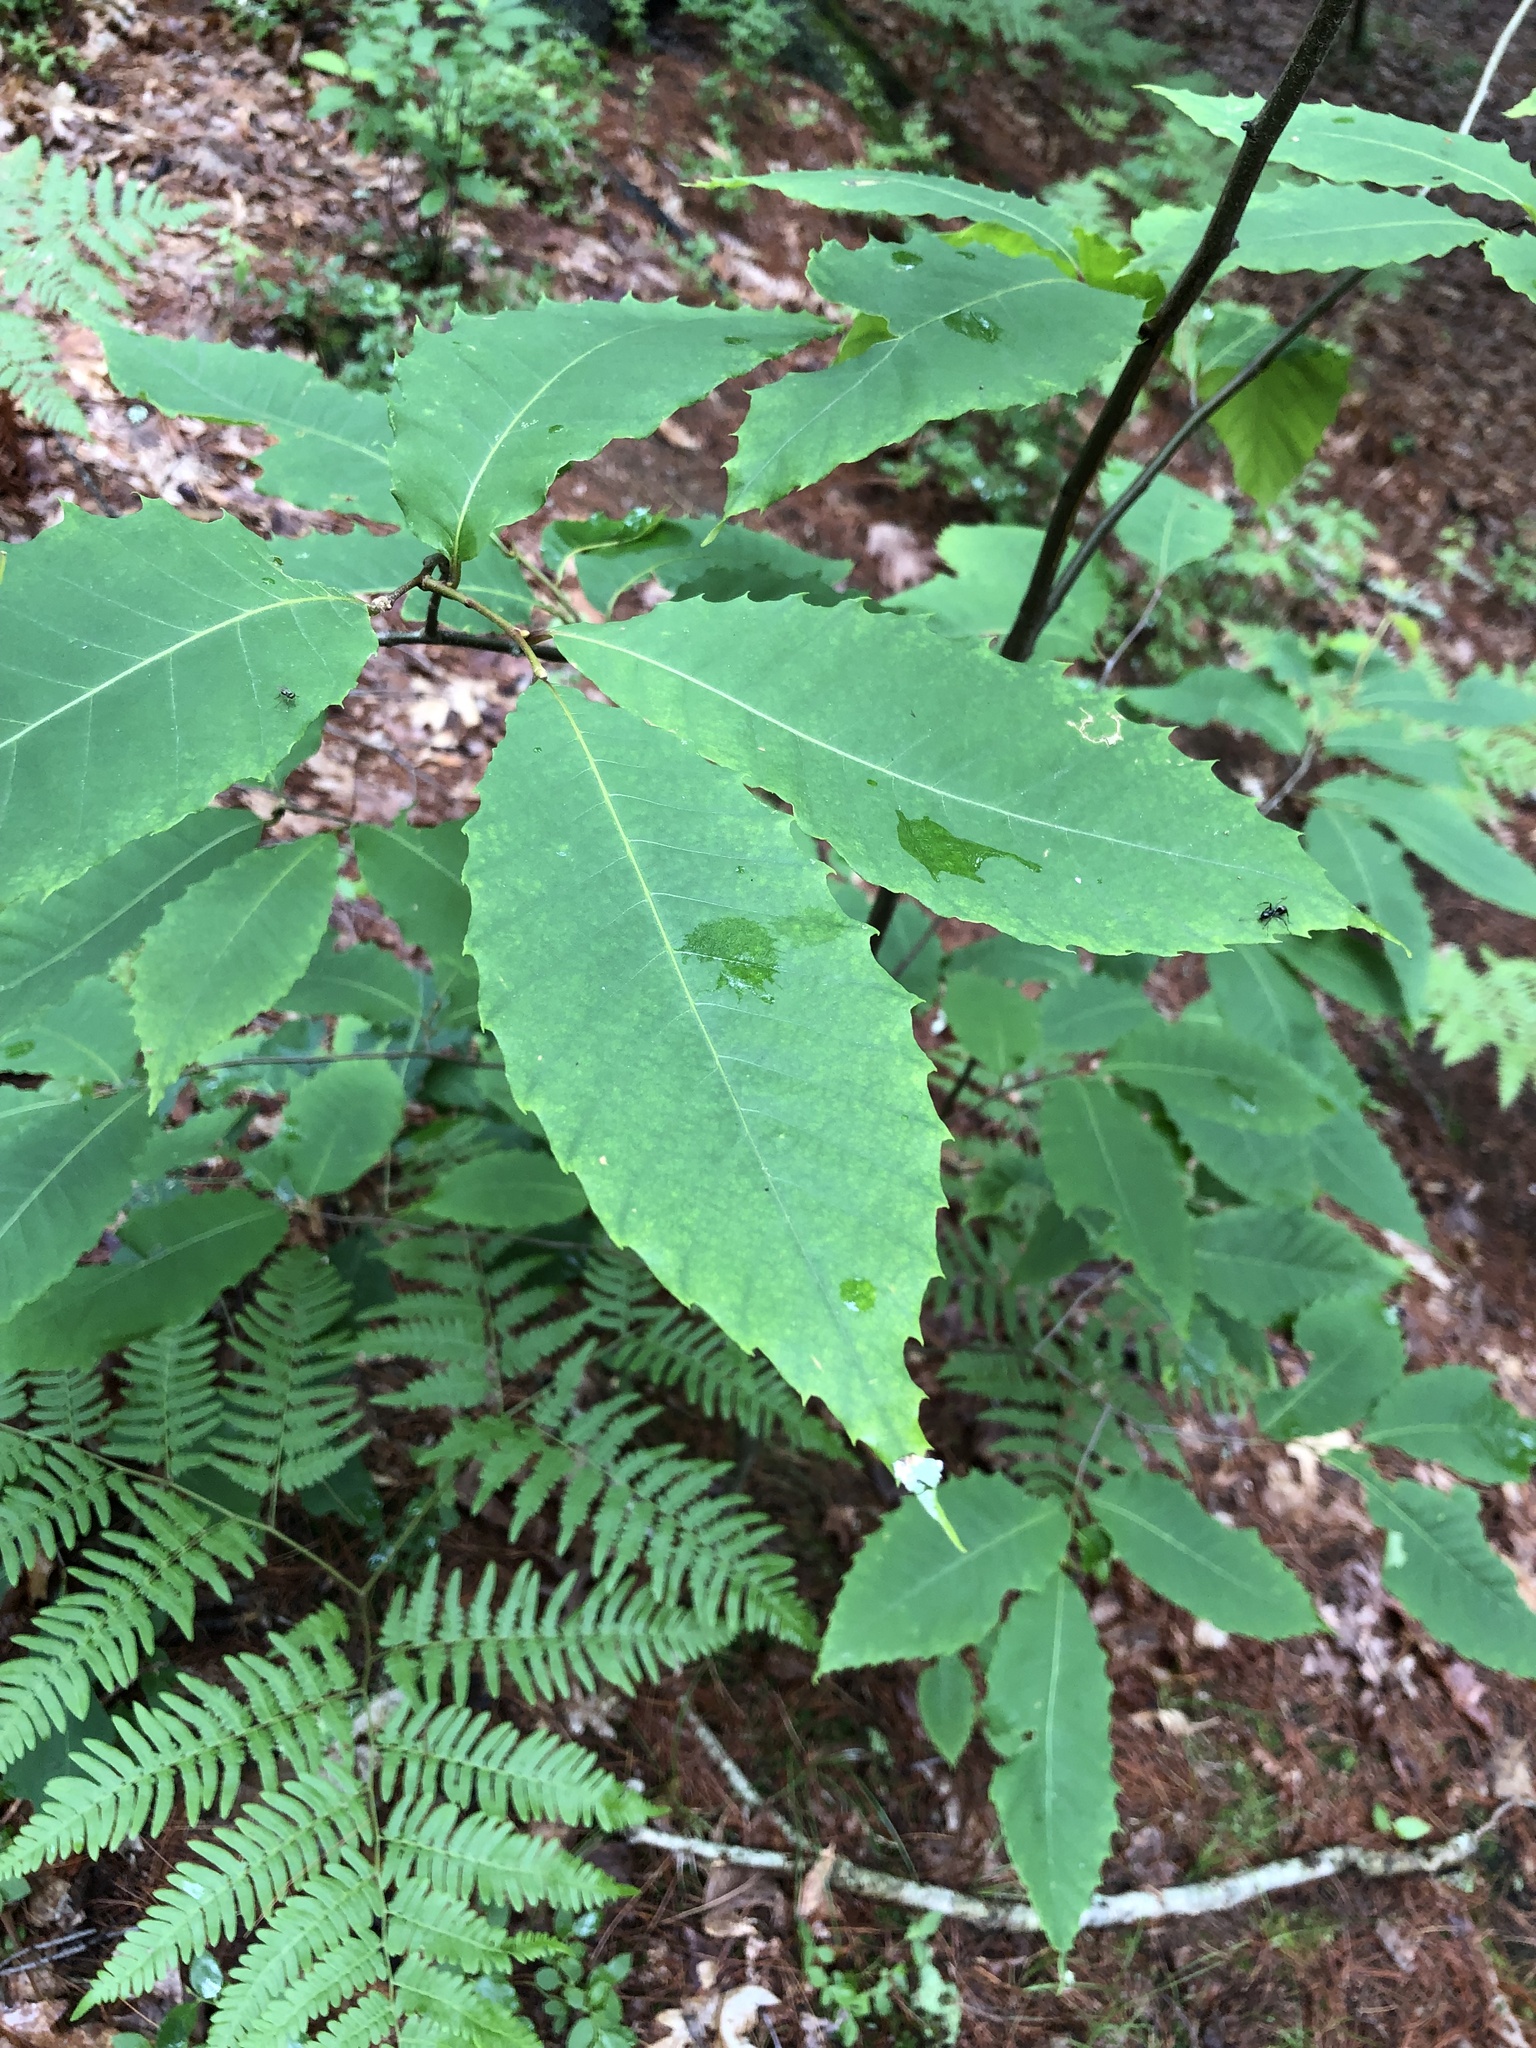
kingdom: Plantae
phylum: Tracheophyta
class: Magnoliopsida
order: Fagales
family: Fagaceae
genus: Castanea
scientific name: Castanea dentata
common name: American chestnut
